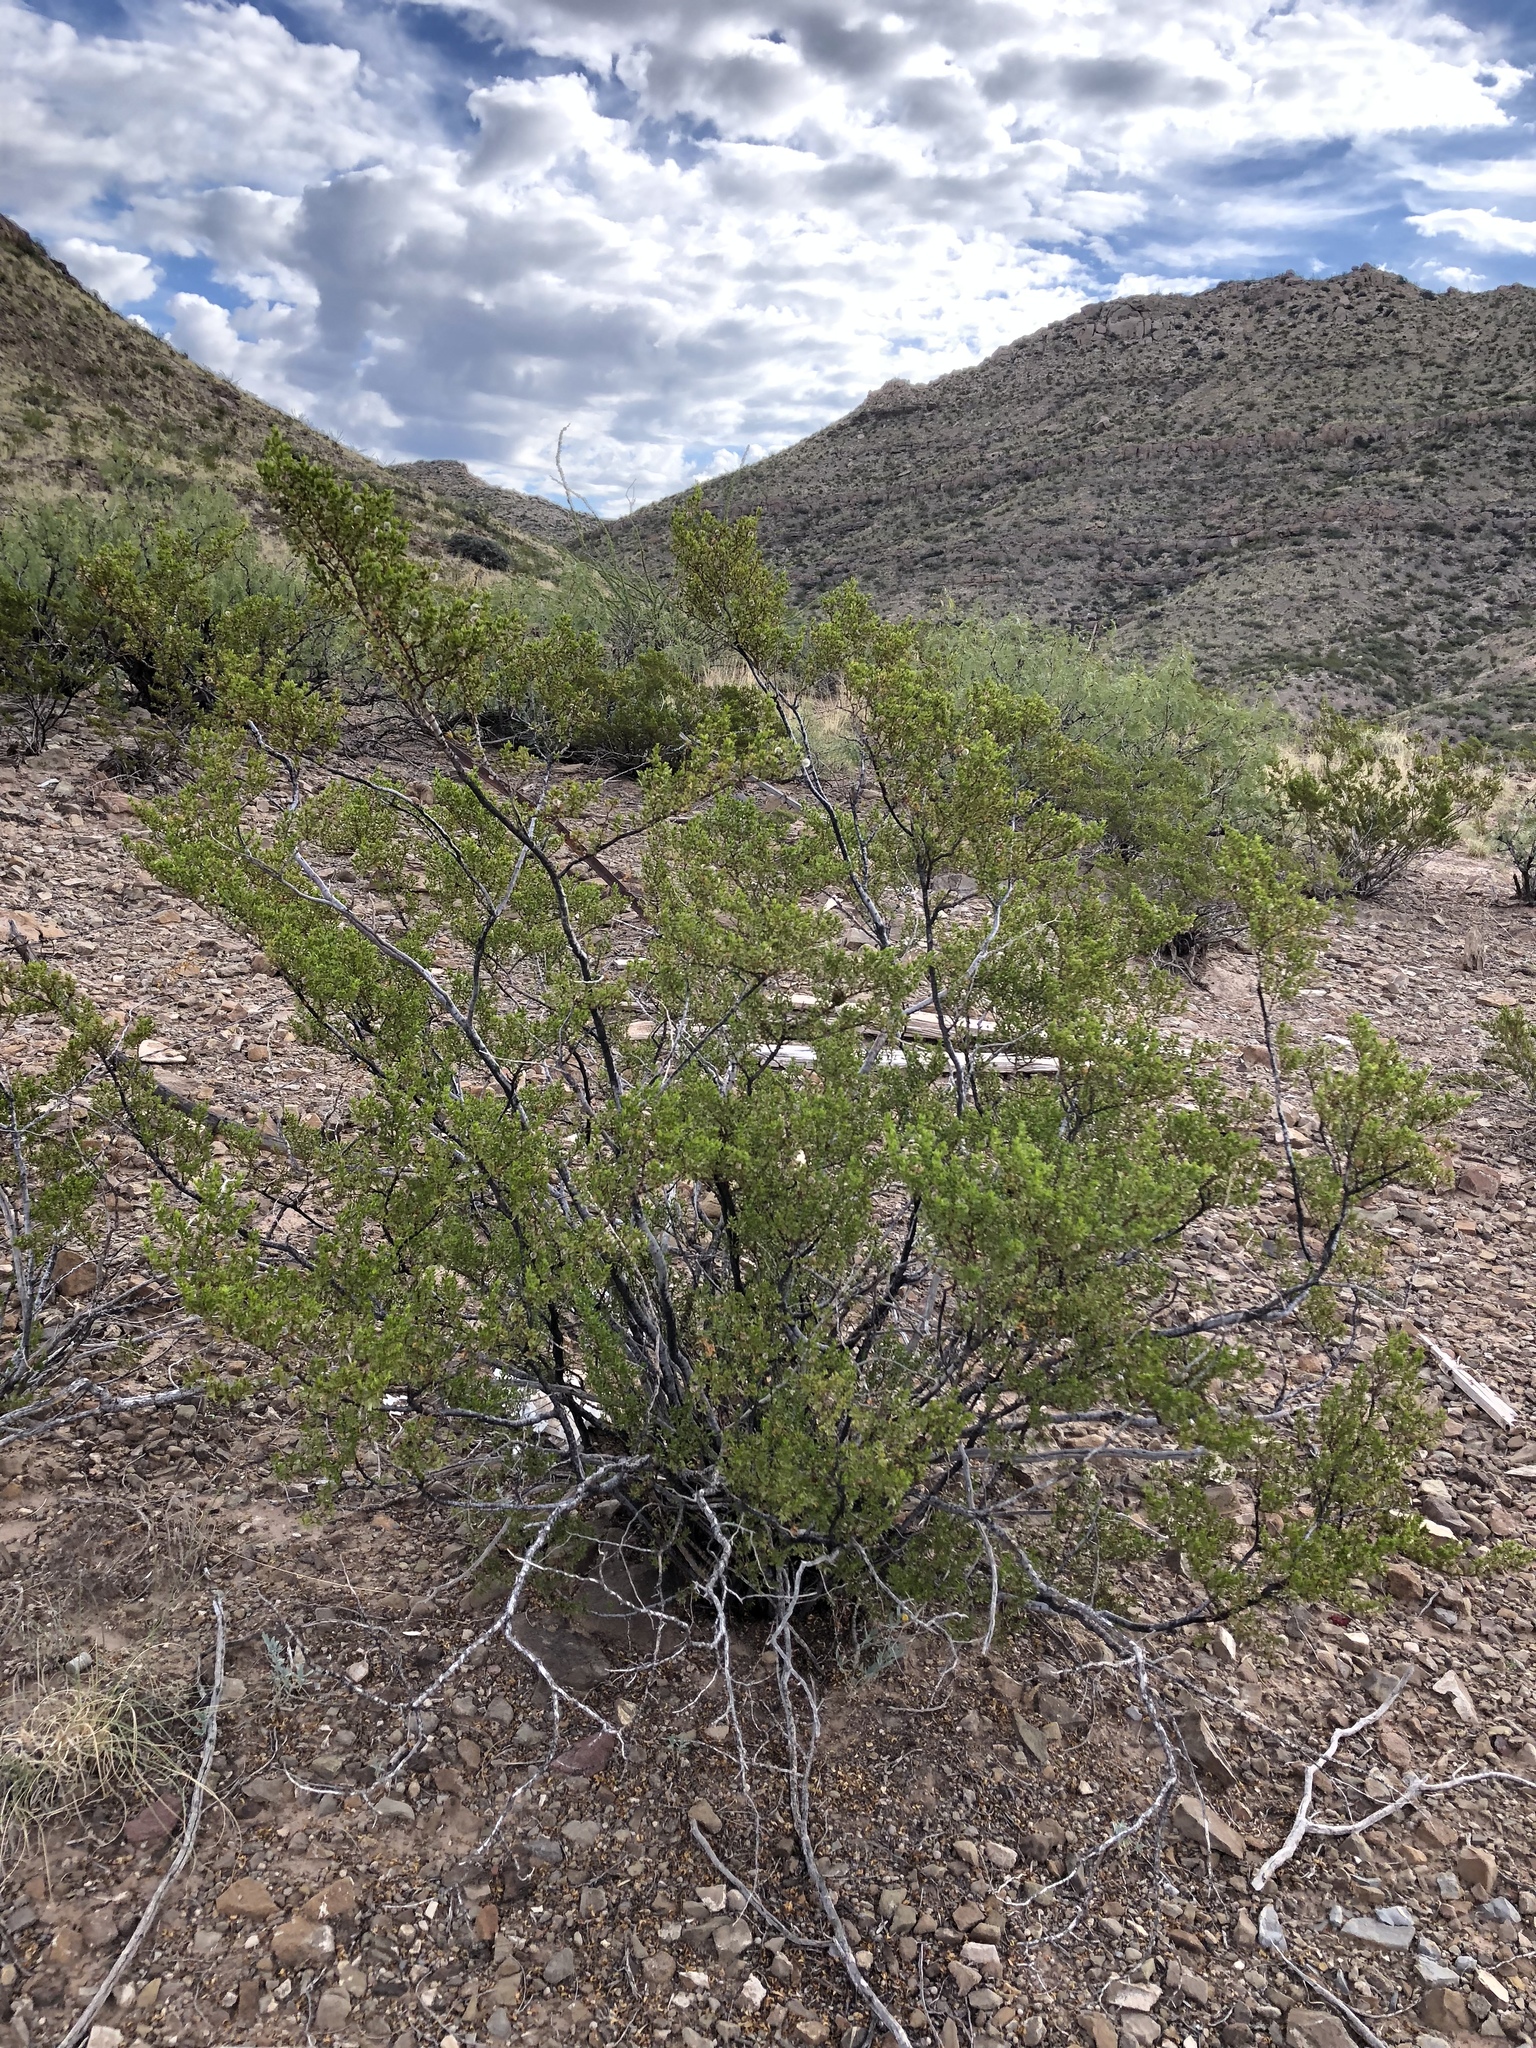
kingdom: Plantae
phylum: Tracheophyta
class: Magnoliopsida
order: Zygophyllales
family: Zygophyllaceae
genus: Larrea
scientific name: Larrea tridentata
